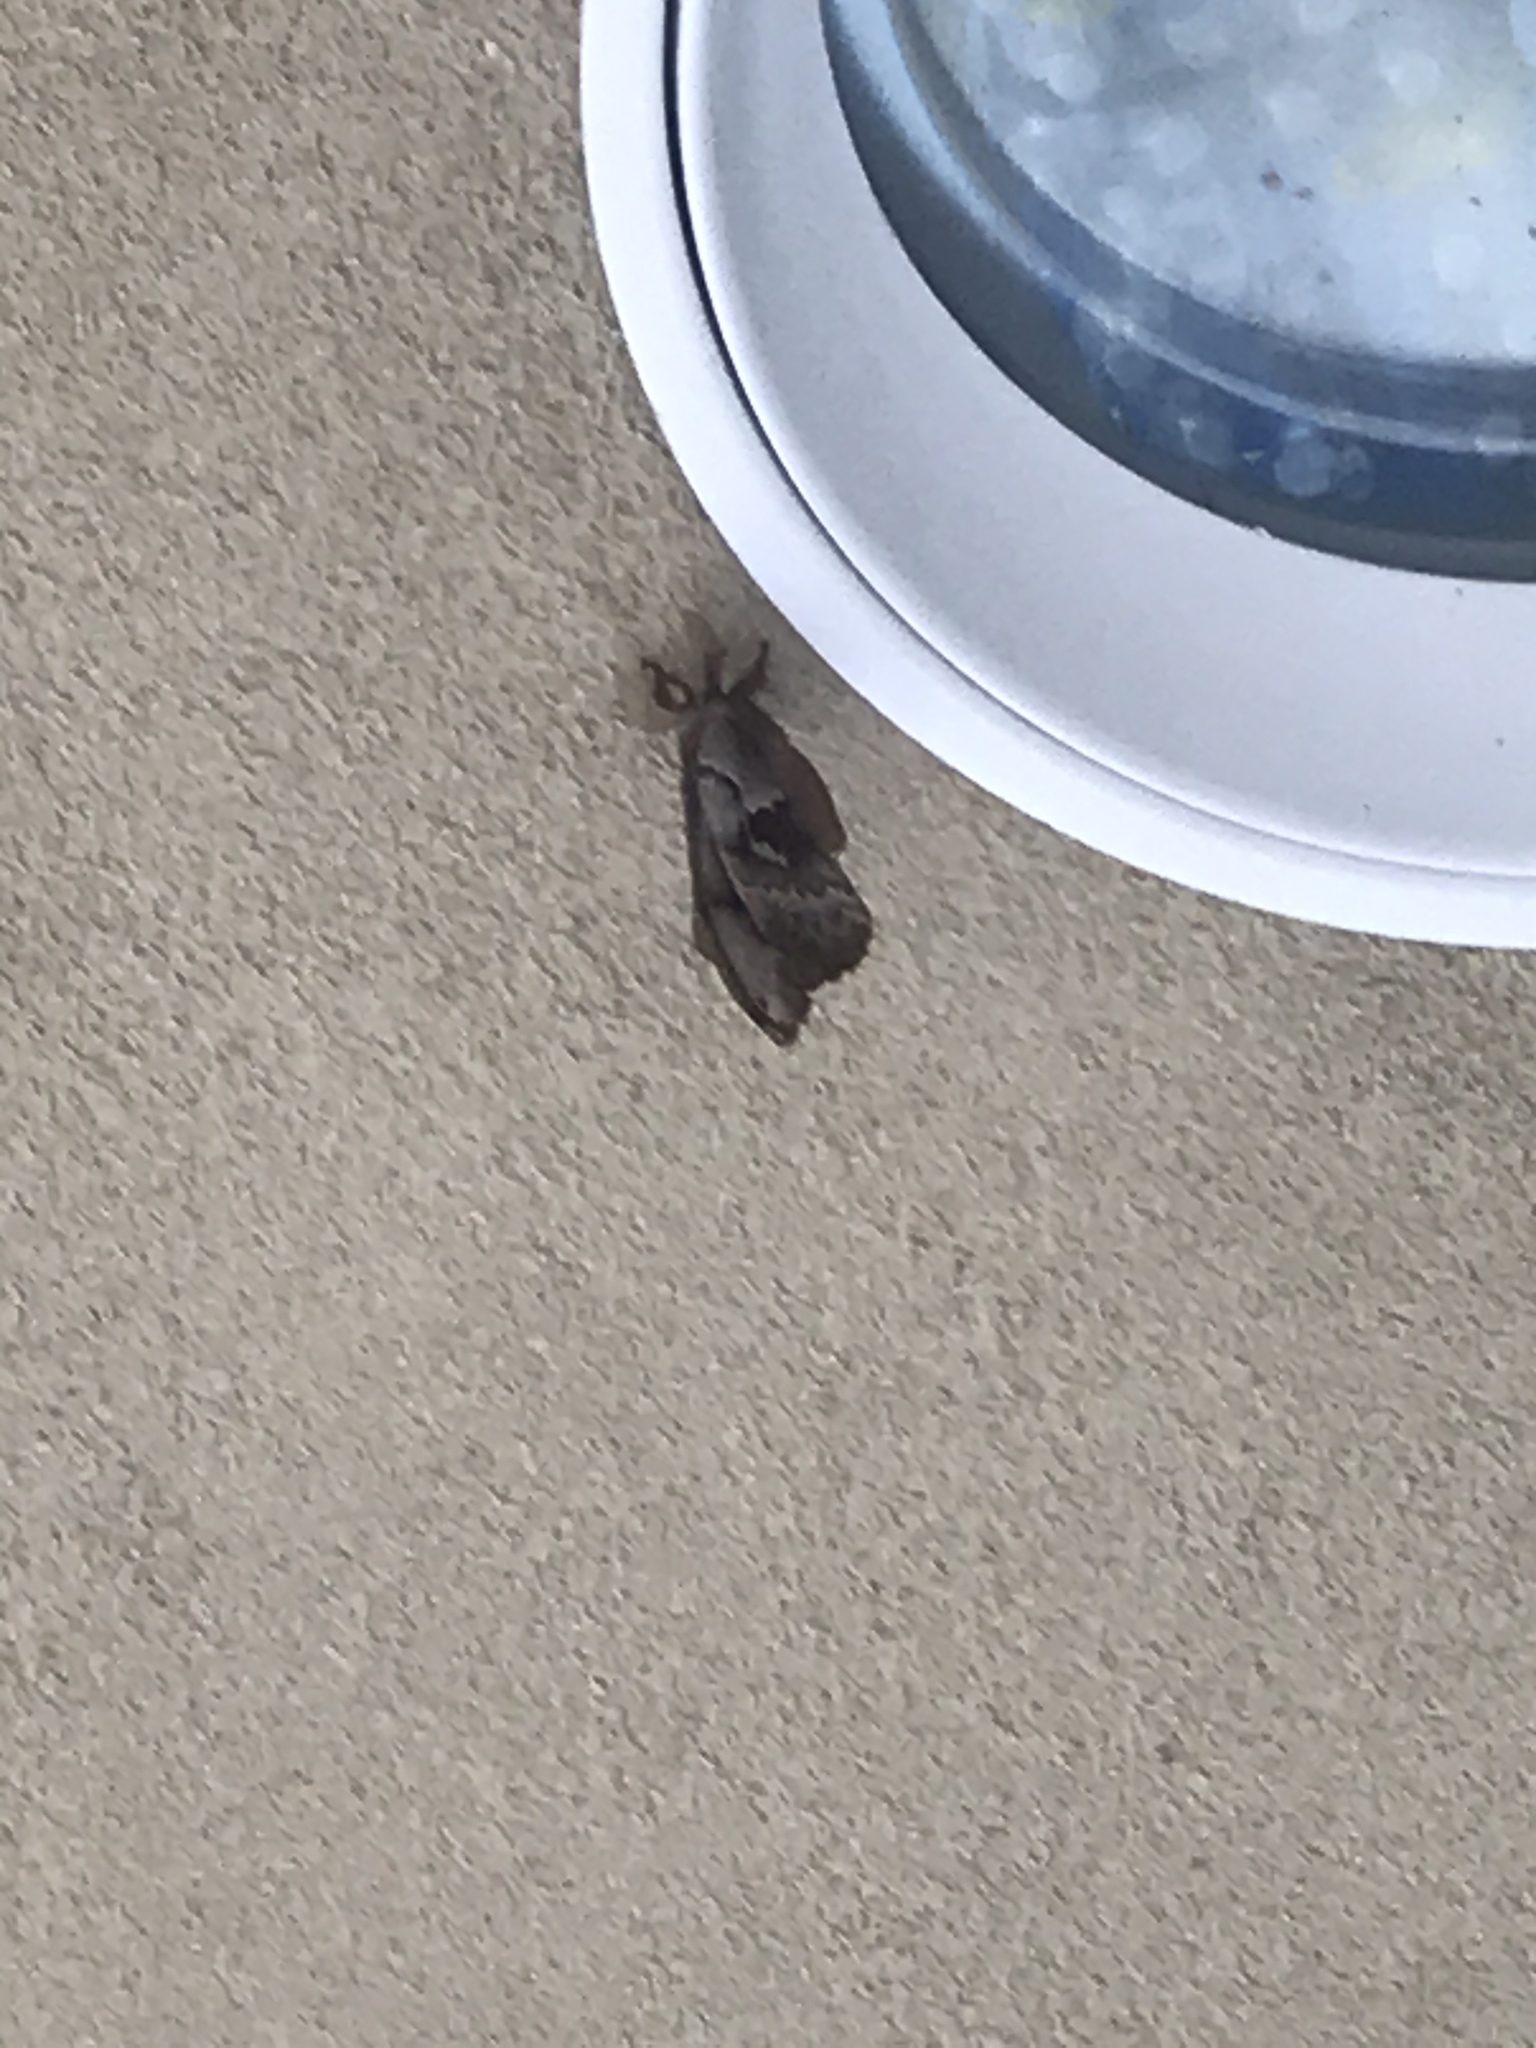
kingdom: Animalia
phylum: Arthropoda
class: Insecta
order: Lepidoptera
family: Saturniidae
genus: Antheraea
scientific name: Antheraea polyphemus
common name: Polyphemus moth
